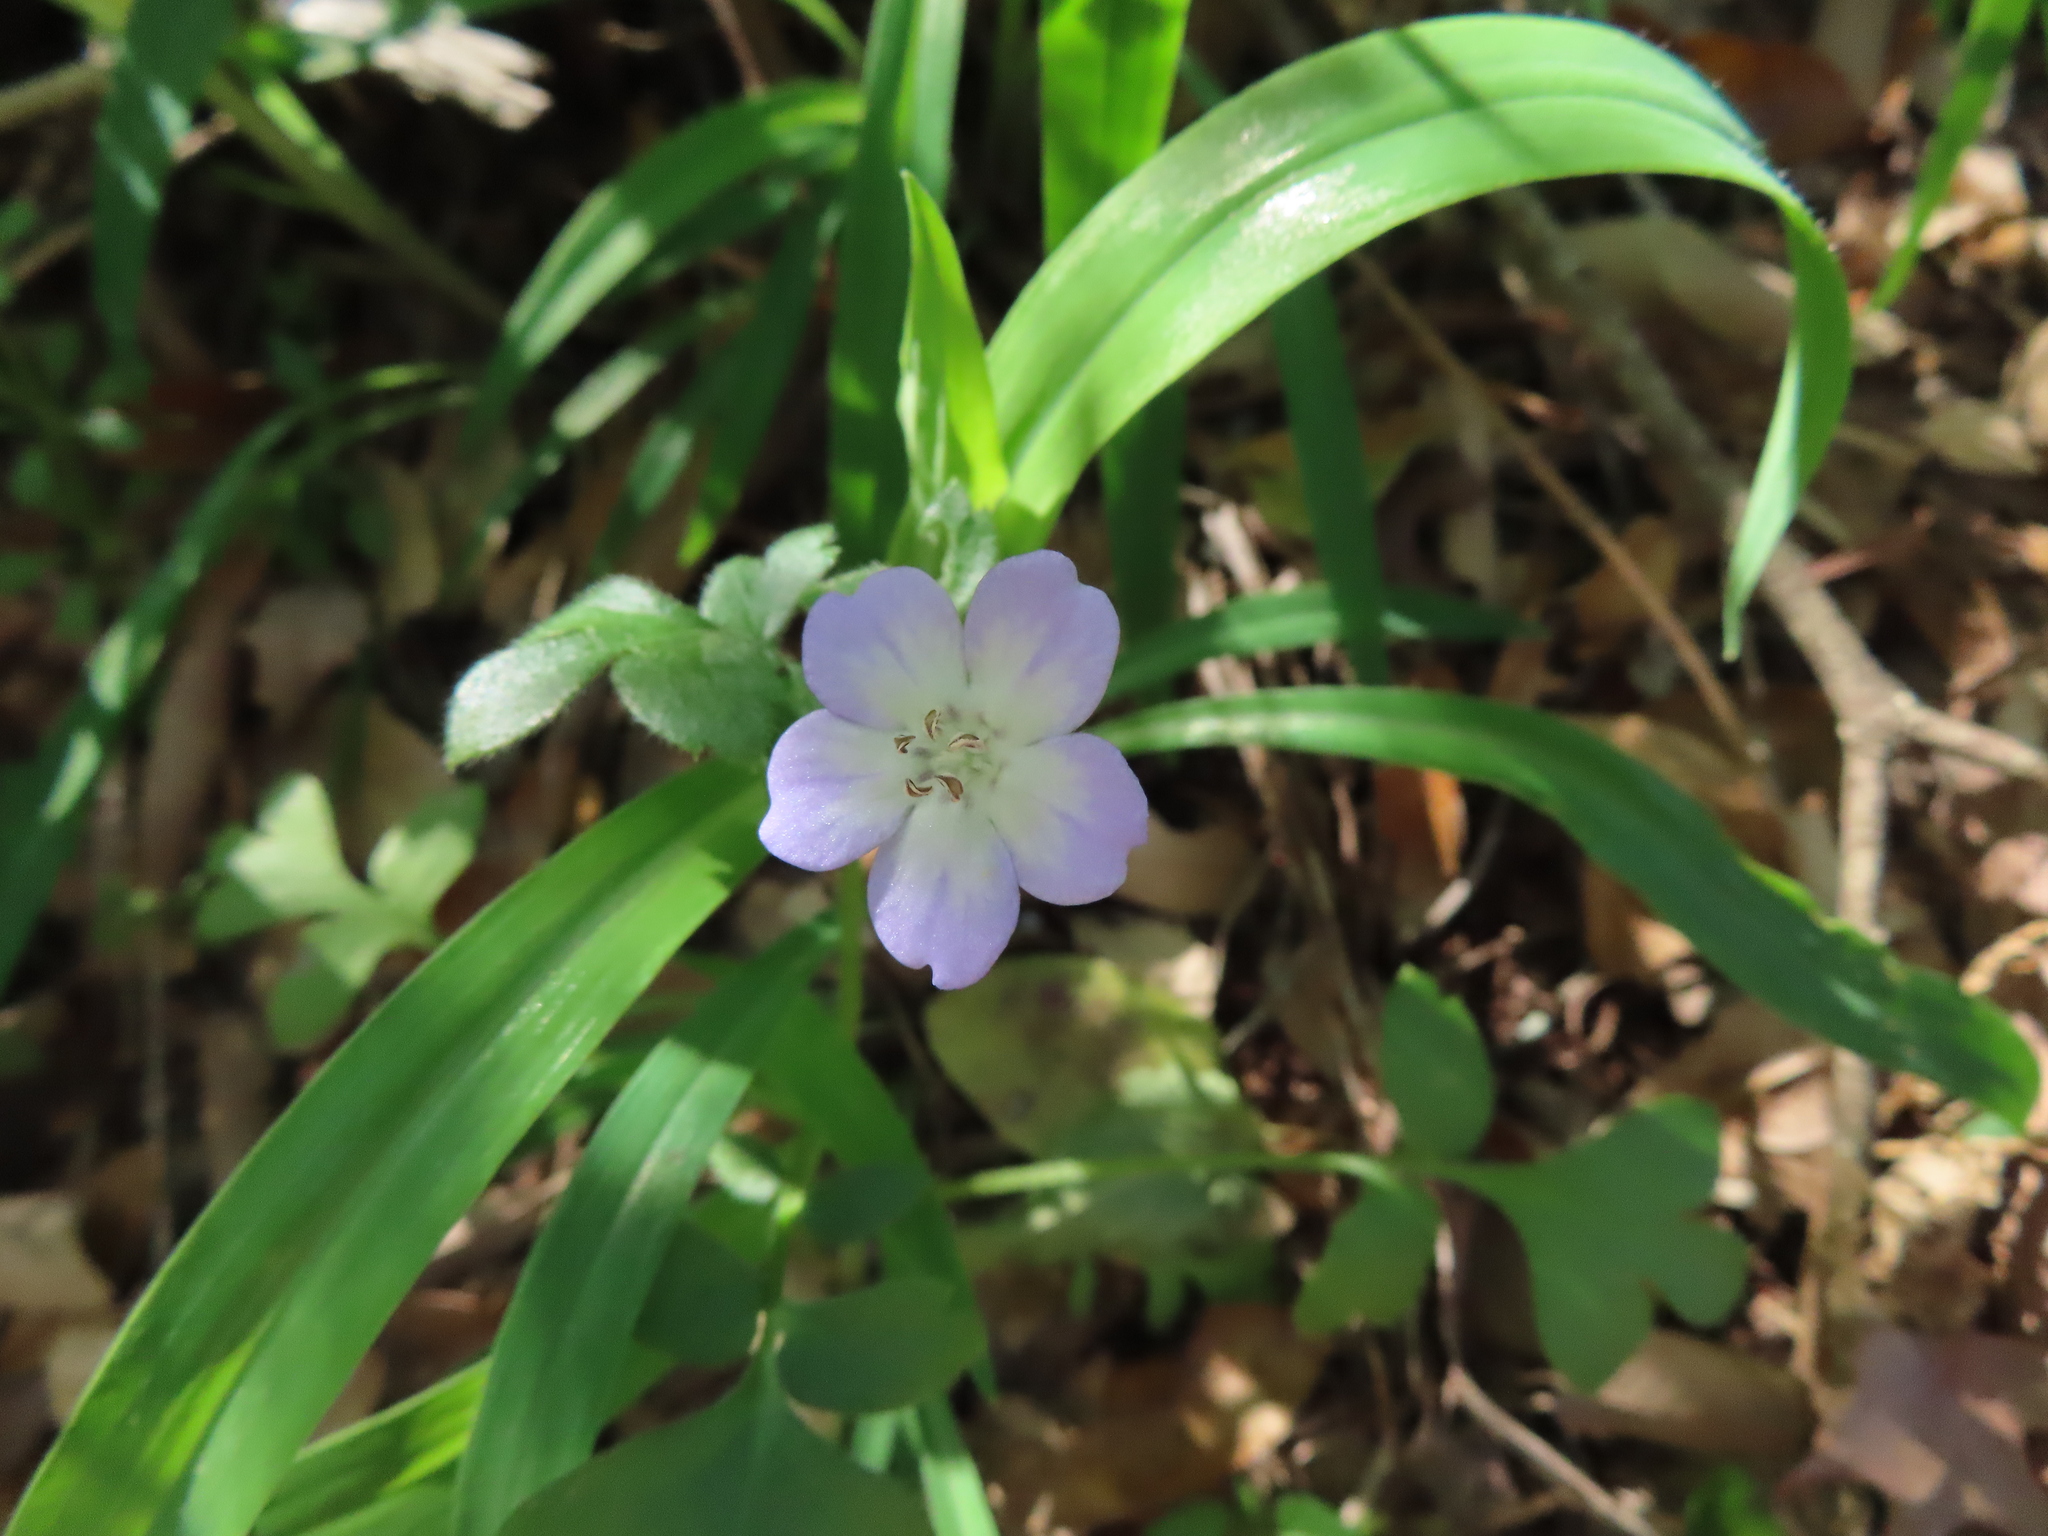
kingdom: Plantae
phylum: Tracheophyta
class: Magnoliopsida
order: Boraginales
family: Hydrophyllaceae
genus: Nemophila
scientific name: Nemophila phacelioides
